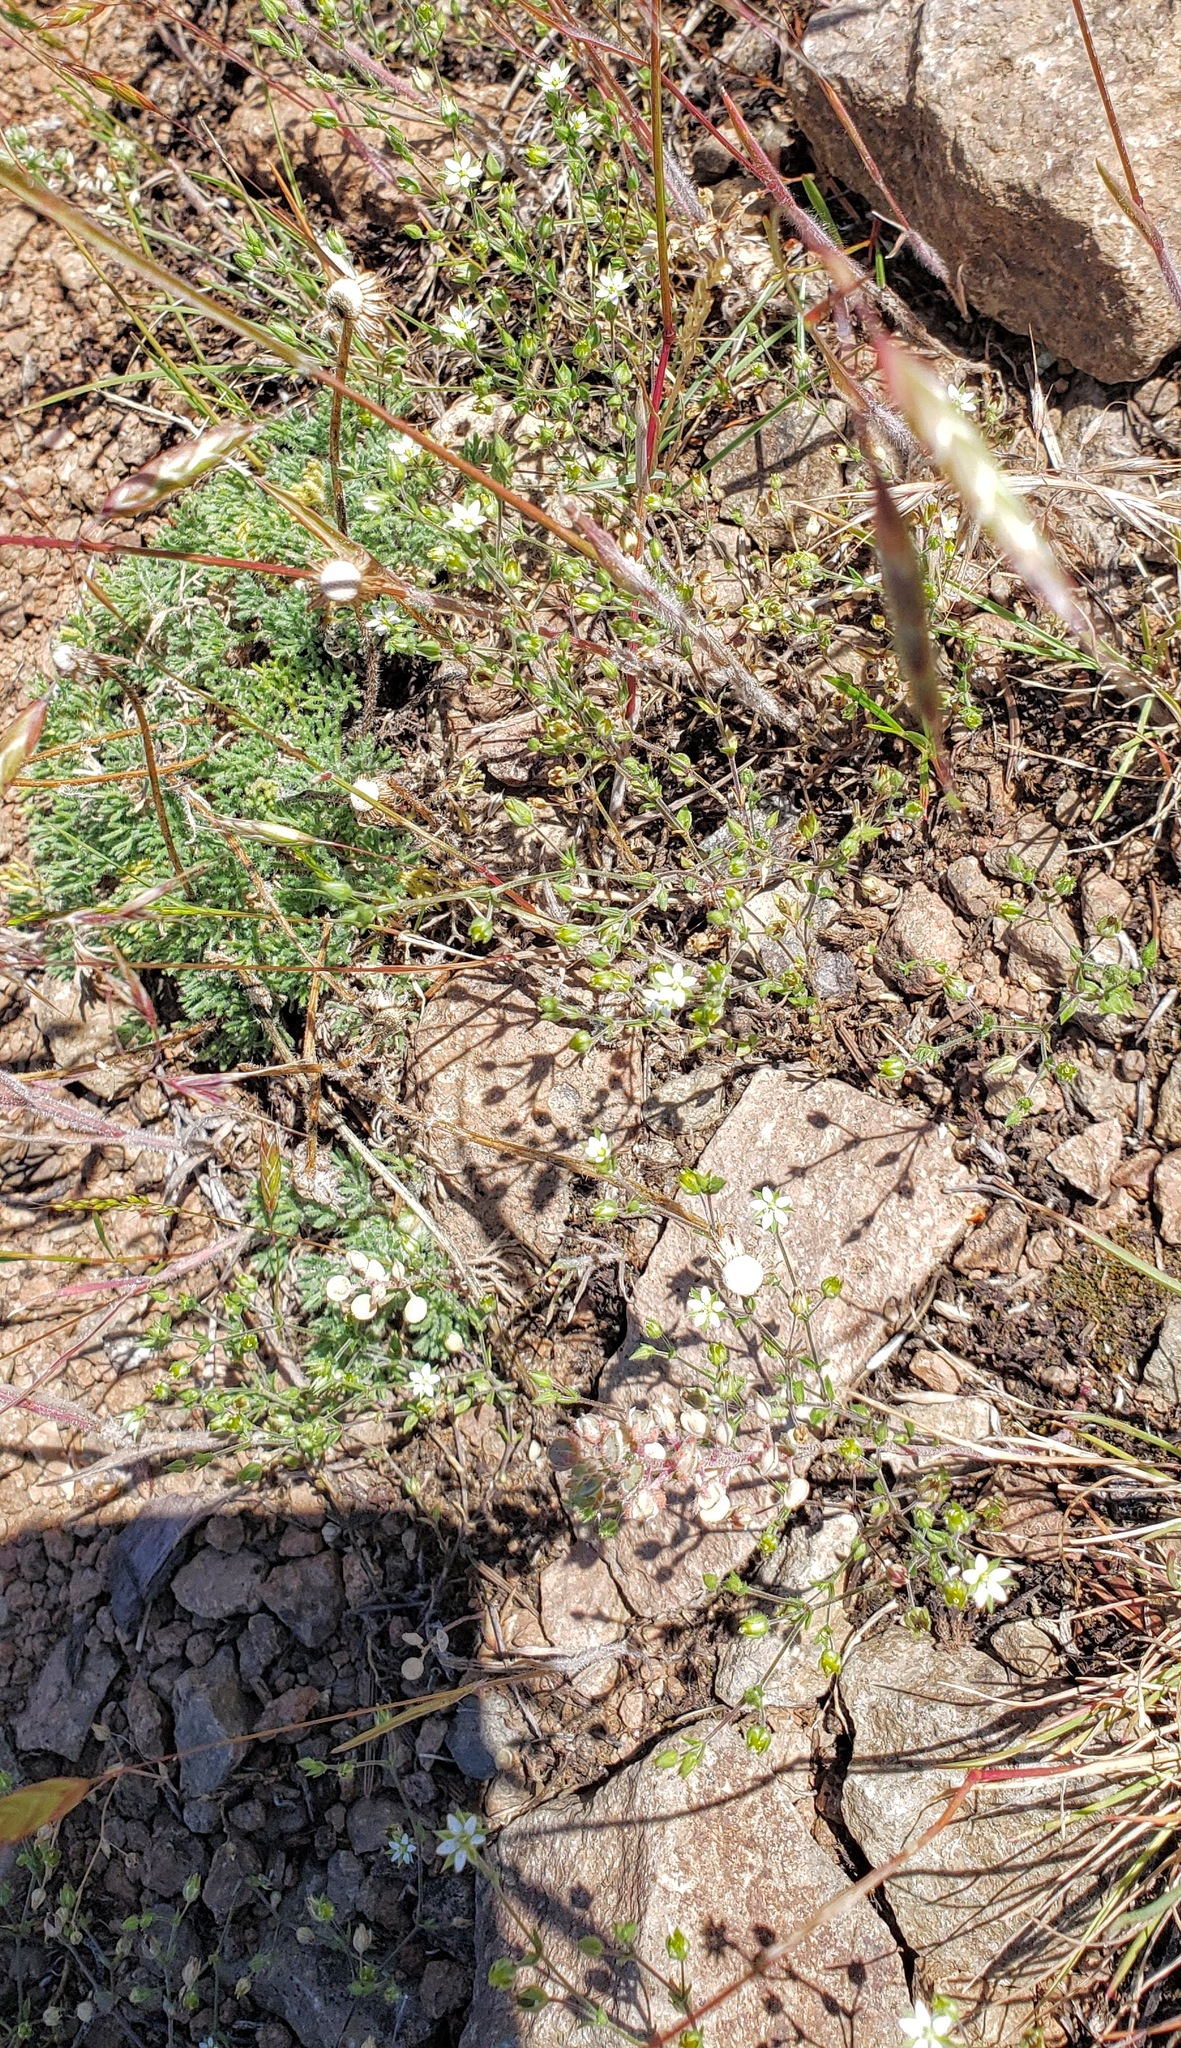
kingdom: Plantae
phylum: Tracheophyta
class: Magnoliopsida
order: Caryophyllales
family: Caryophyllaceae
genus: Arenaria
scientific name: Arenaria serpyllifolia
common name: Thyme-leaved sandwort
